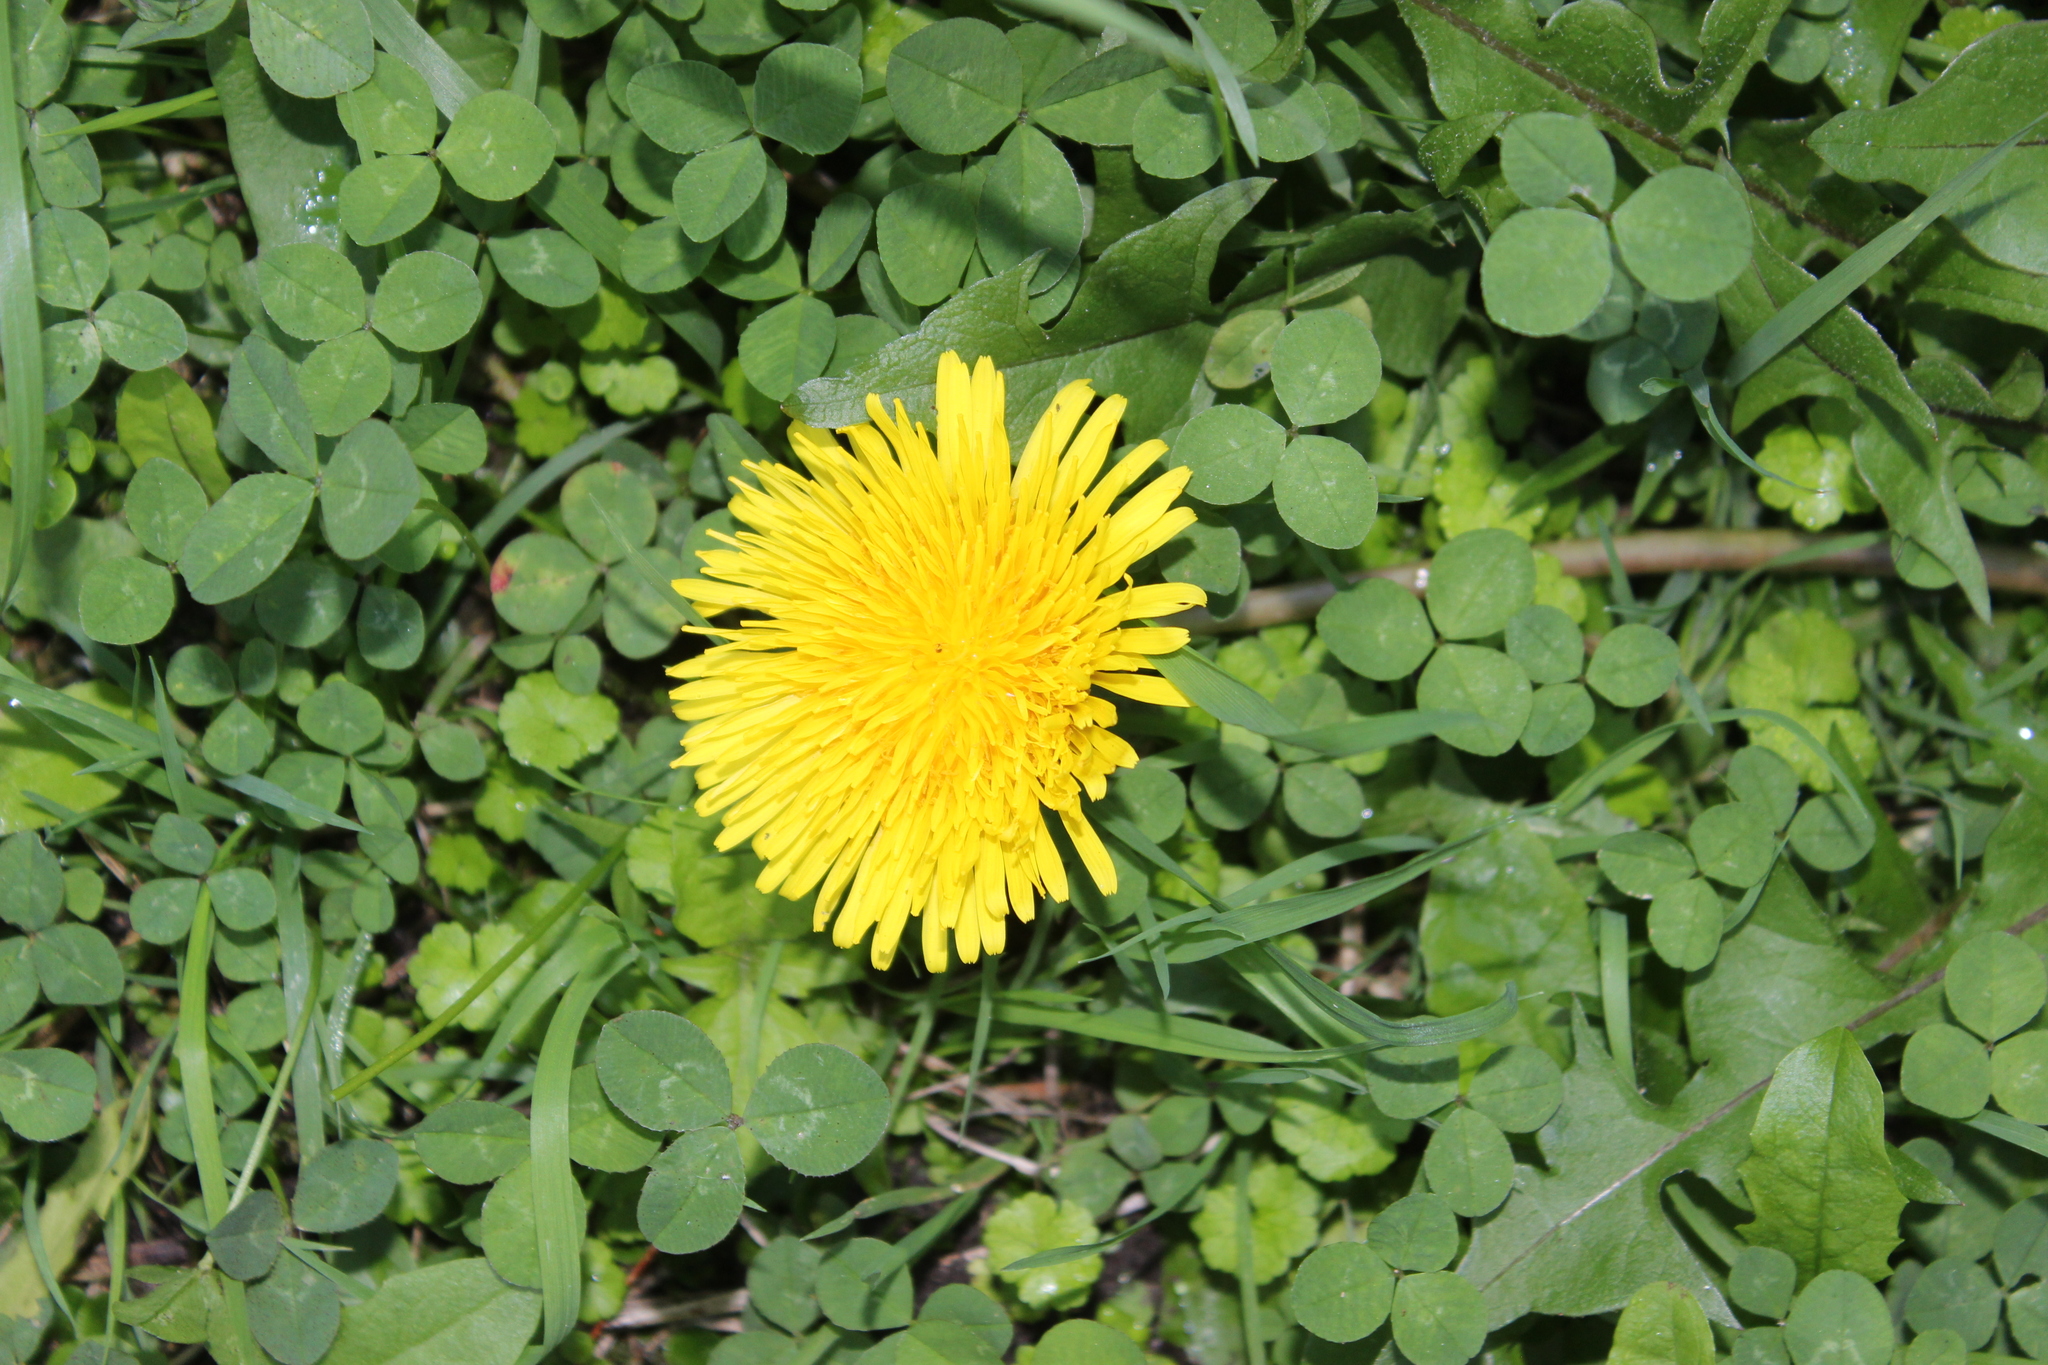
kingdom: Plantae
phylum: Tracheophyta
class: Magnoliopsida
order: Asterales
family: Asteraceae
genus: Taraxacum
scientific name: Taraxacum officinale
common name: Common dandelion
